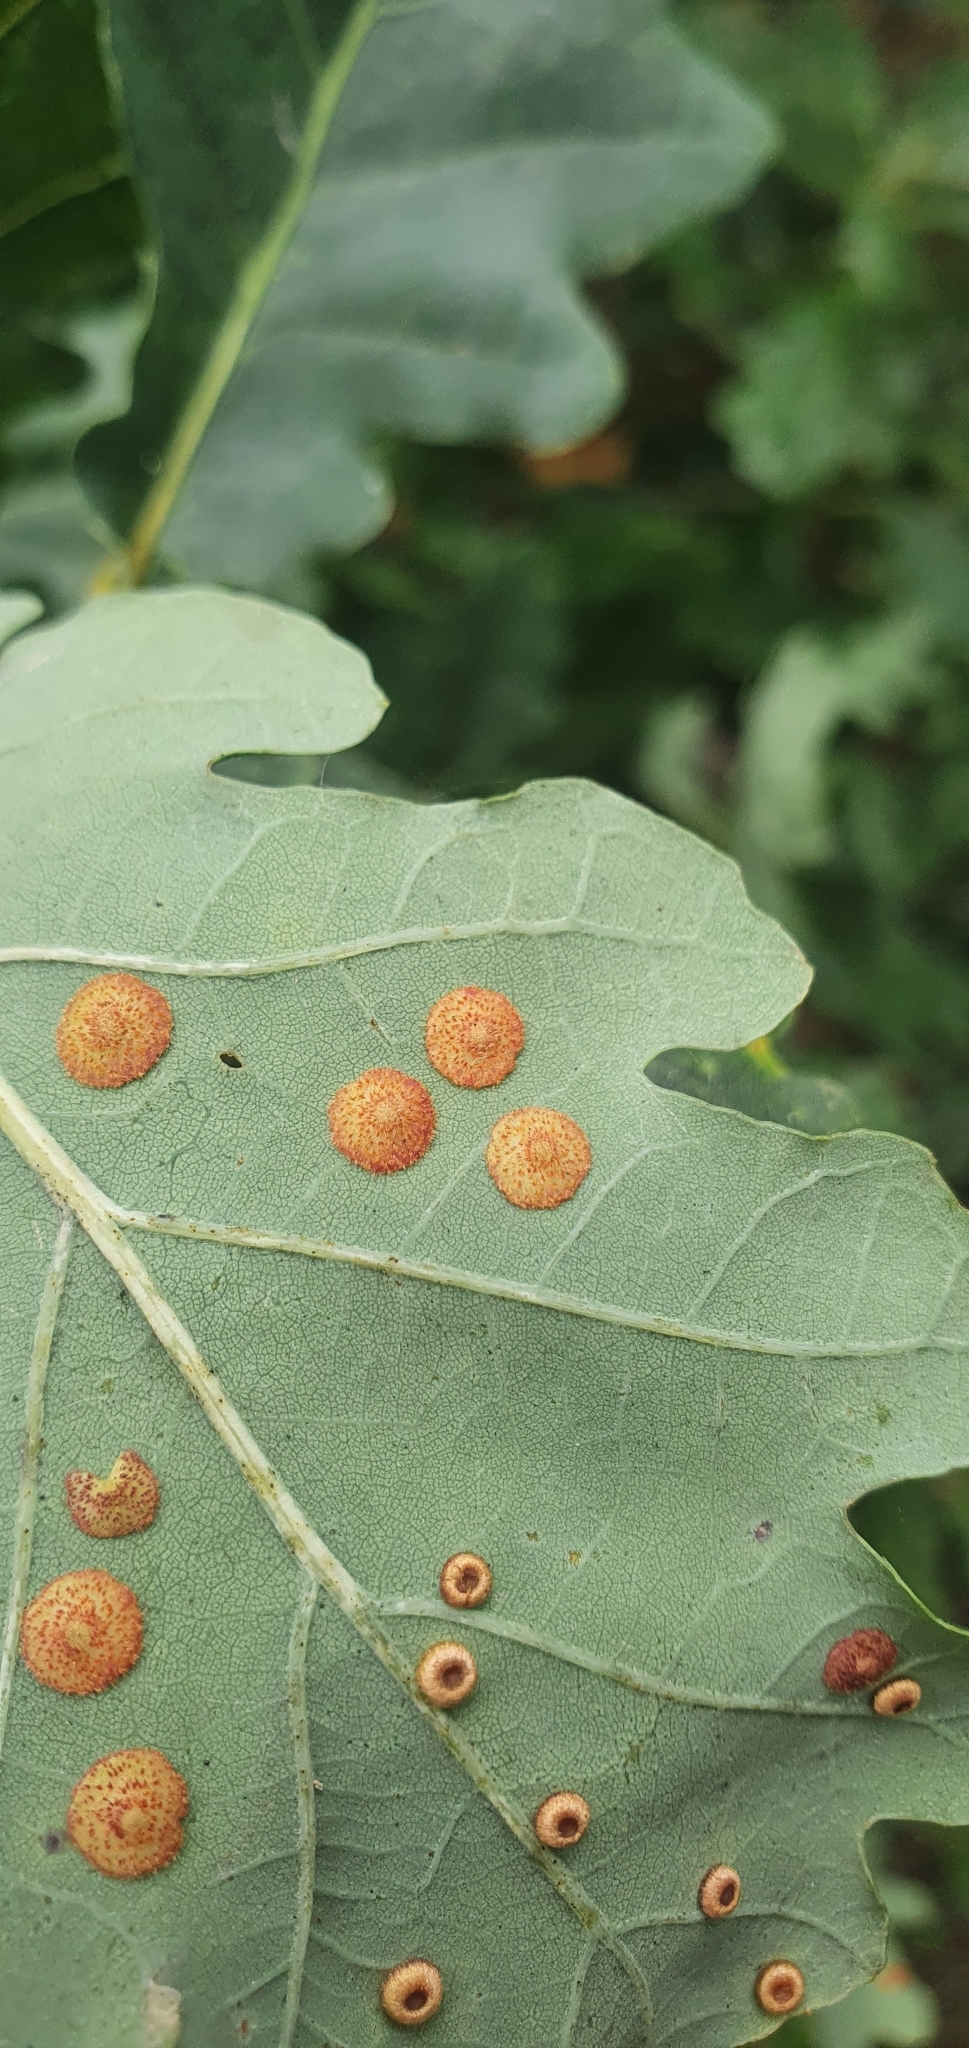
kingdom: Animalia
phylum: Arthropoda
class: Insecta
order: Hymenoptera
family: Cynipidae
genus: Neuroterus
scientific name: Neuroterus quercusbaccarum
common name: Common spangle gall
